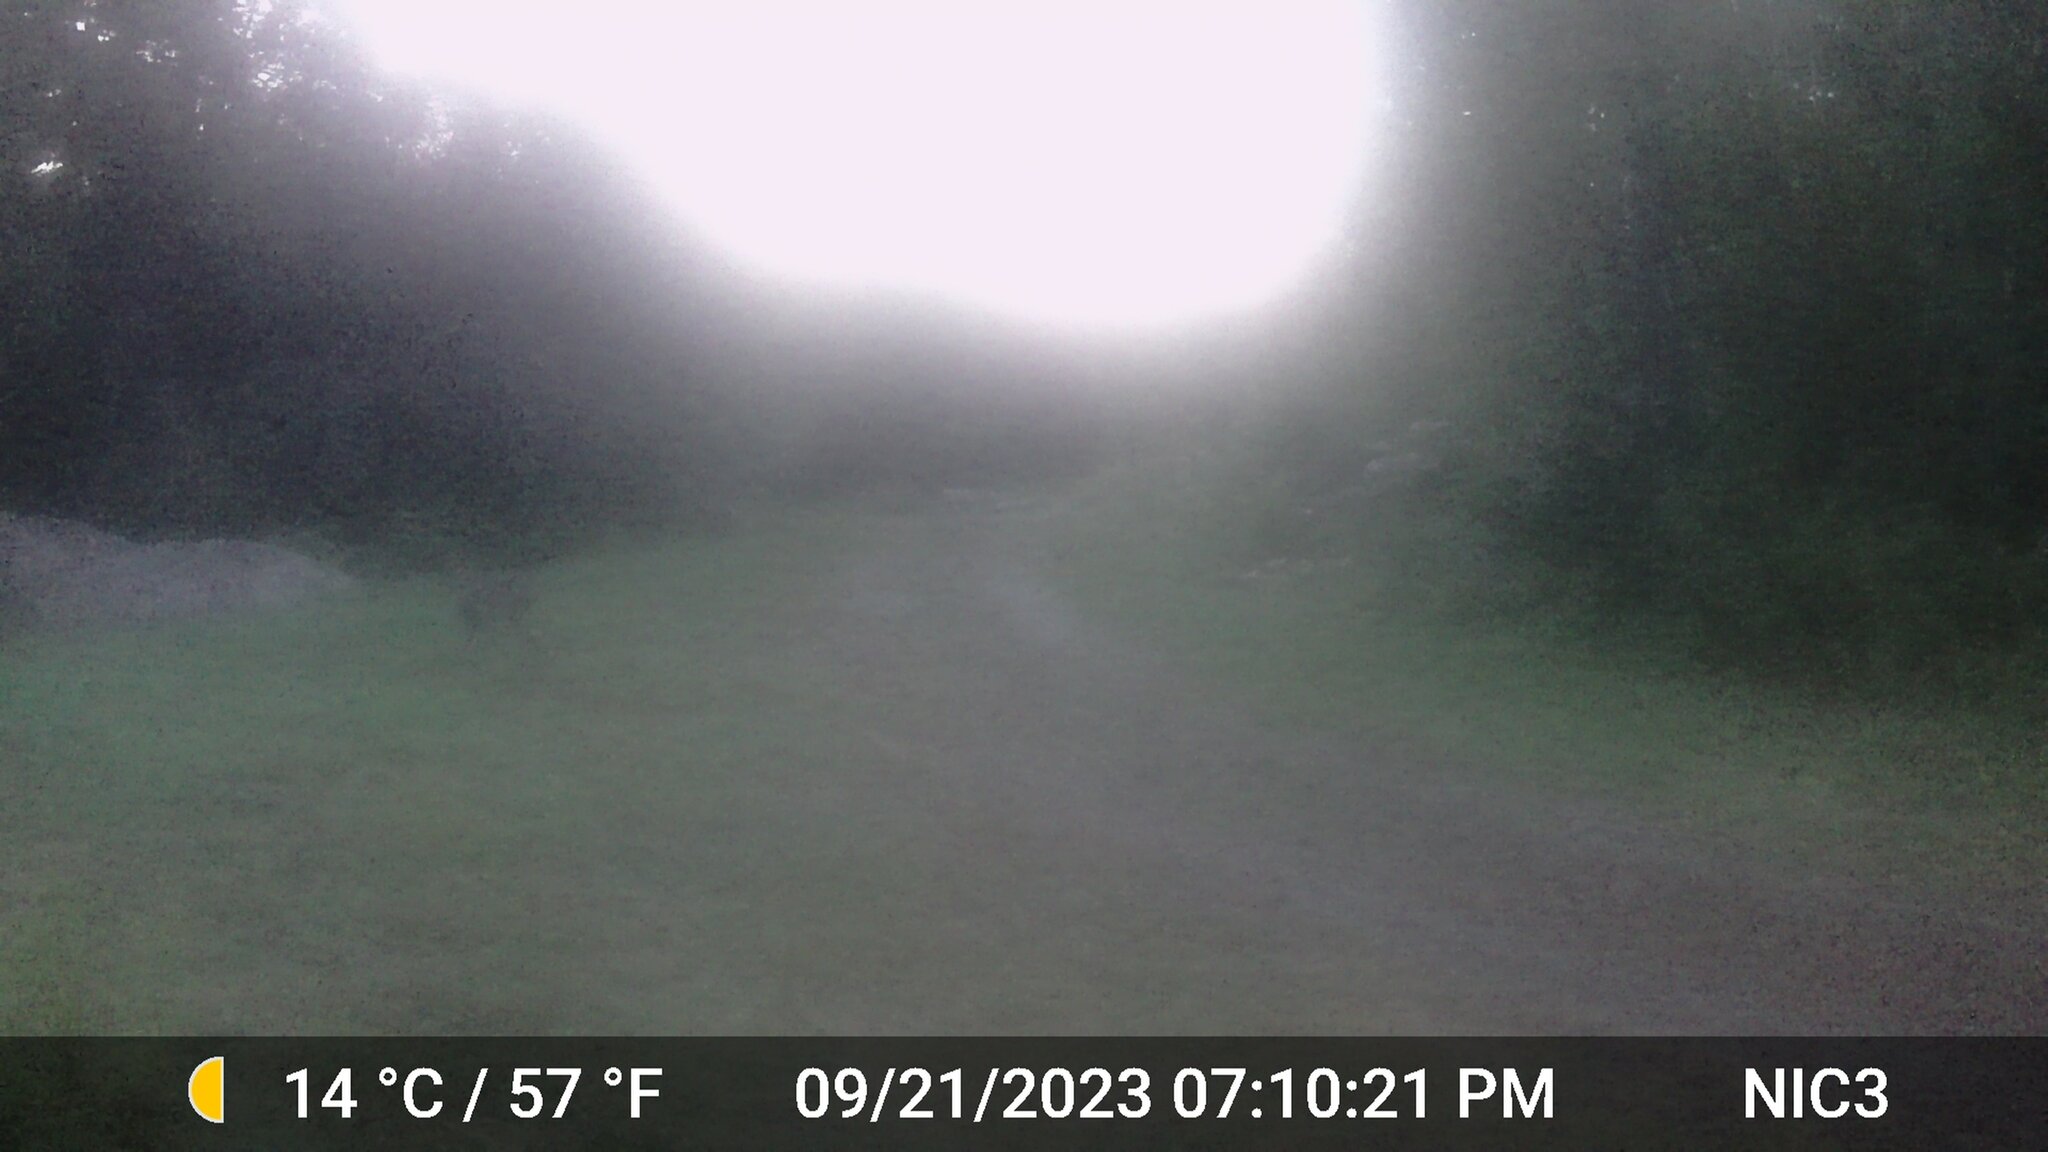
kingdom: Animalia
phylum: Chordata
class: Mammalia
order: Artiodactyla
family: Cervidae
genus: Odocoileus
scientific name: Odocoileus virginianus
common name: White-tailed deer
